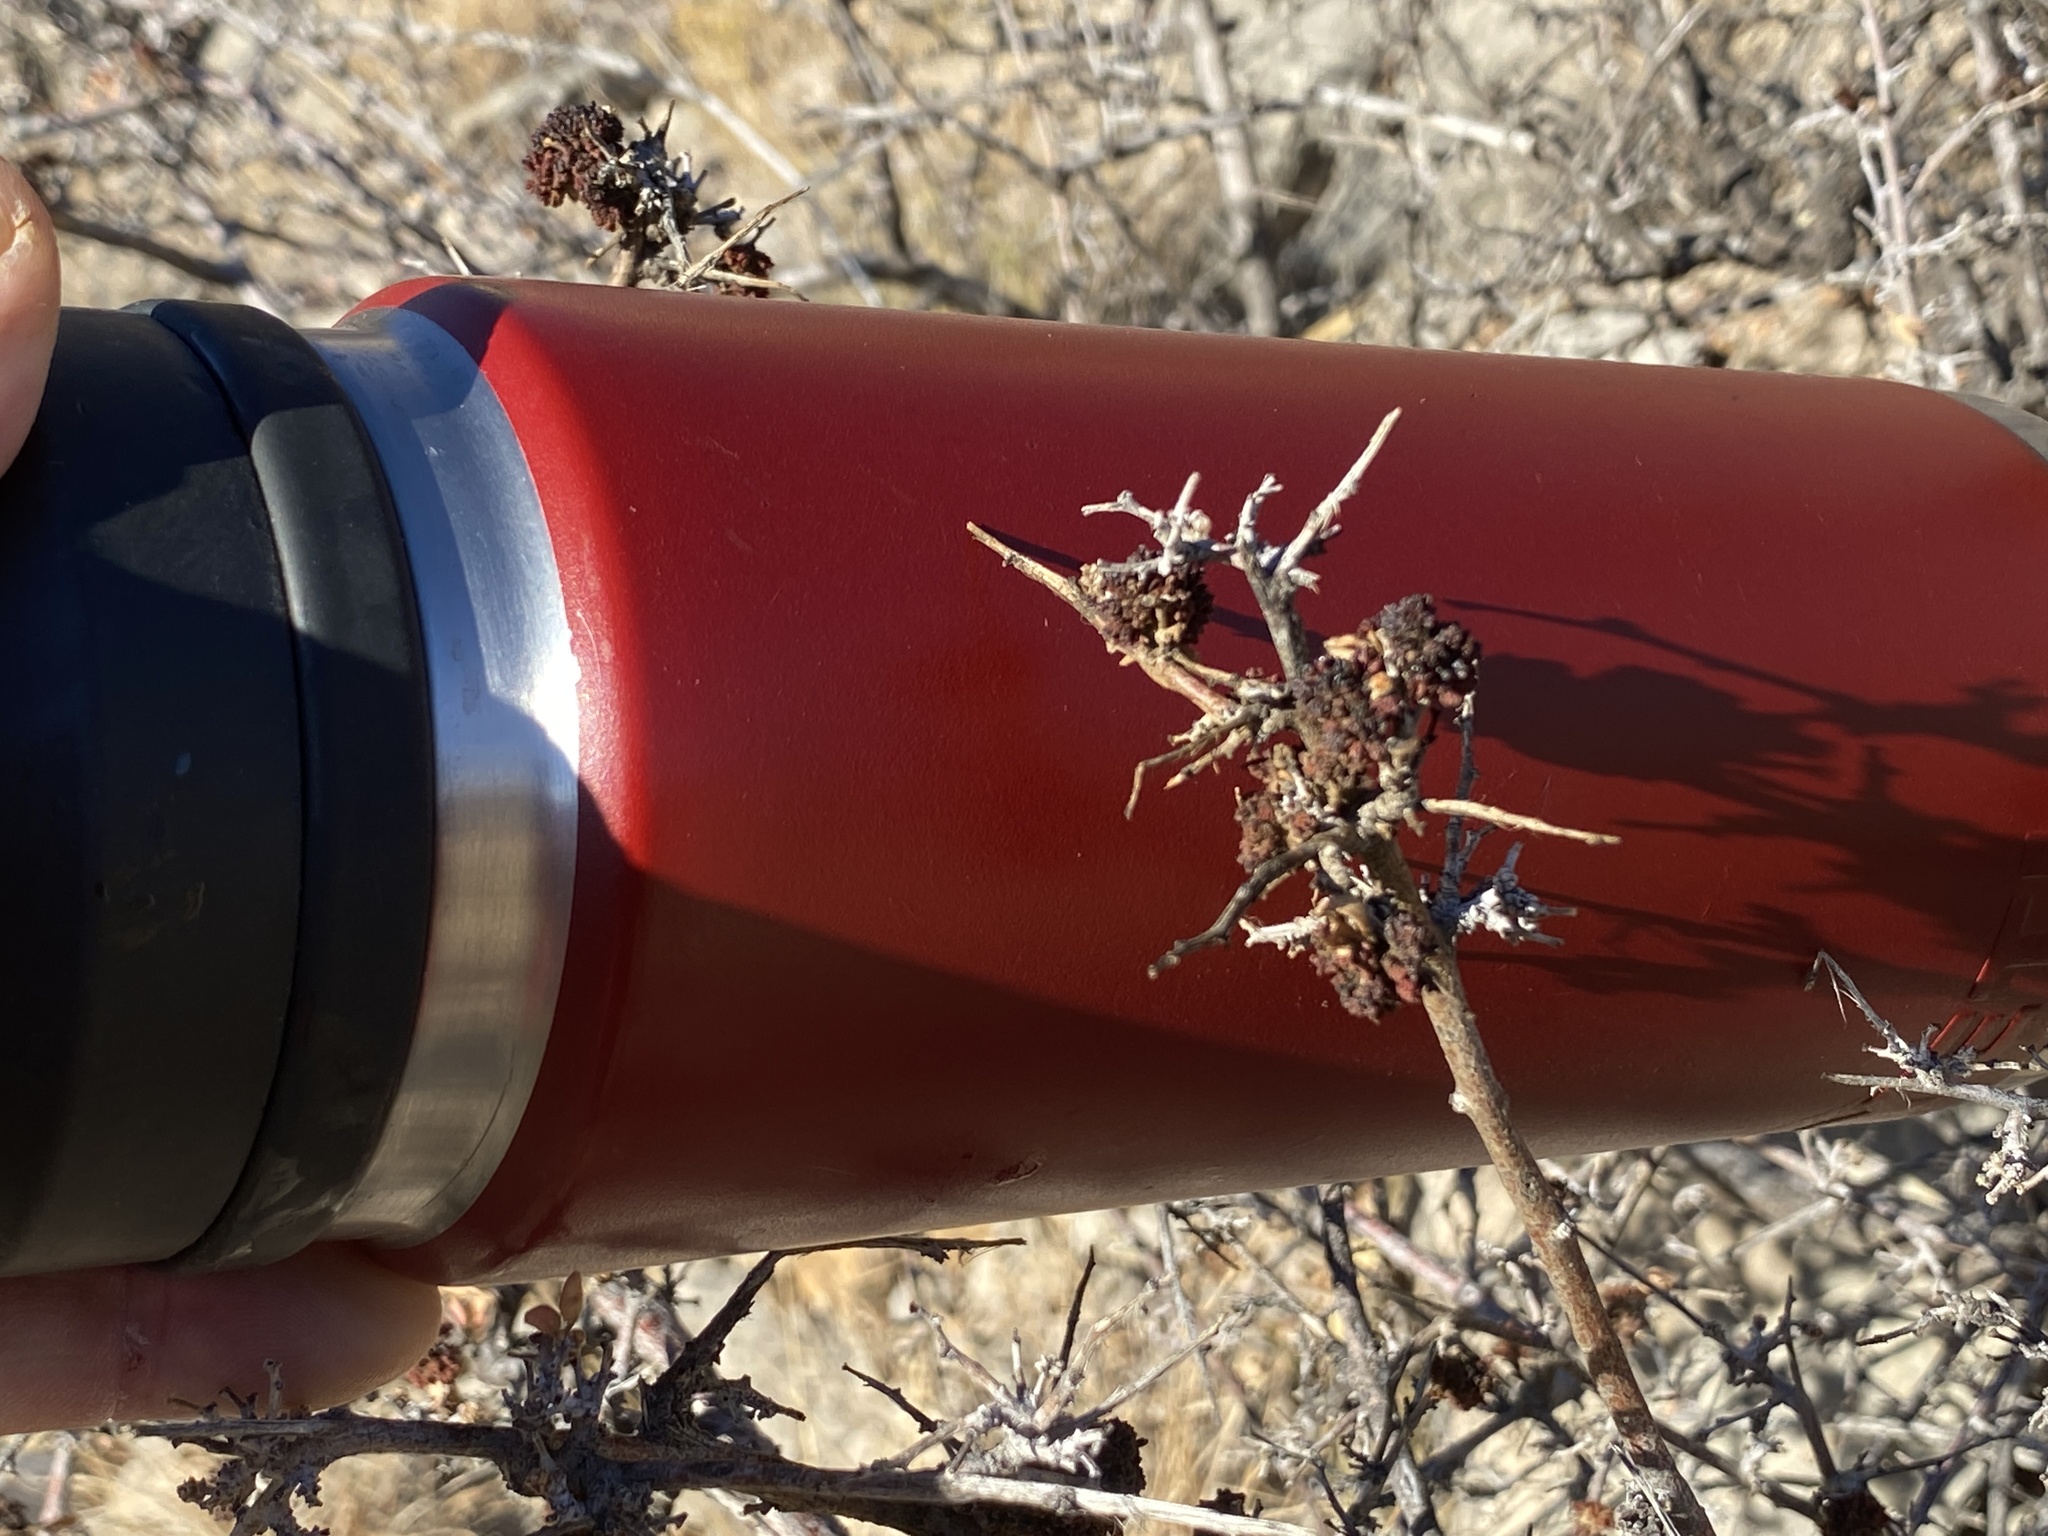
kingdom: Plantae
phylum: Tracheophyta
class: Magnoliopsida
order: Sapindales
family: Anacardiaceae
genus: Rhus
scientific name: Rhus microphylla
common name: Desert sumac
